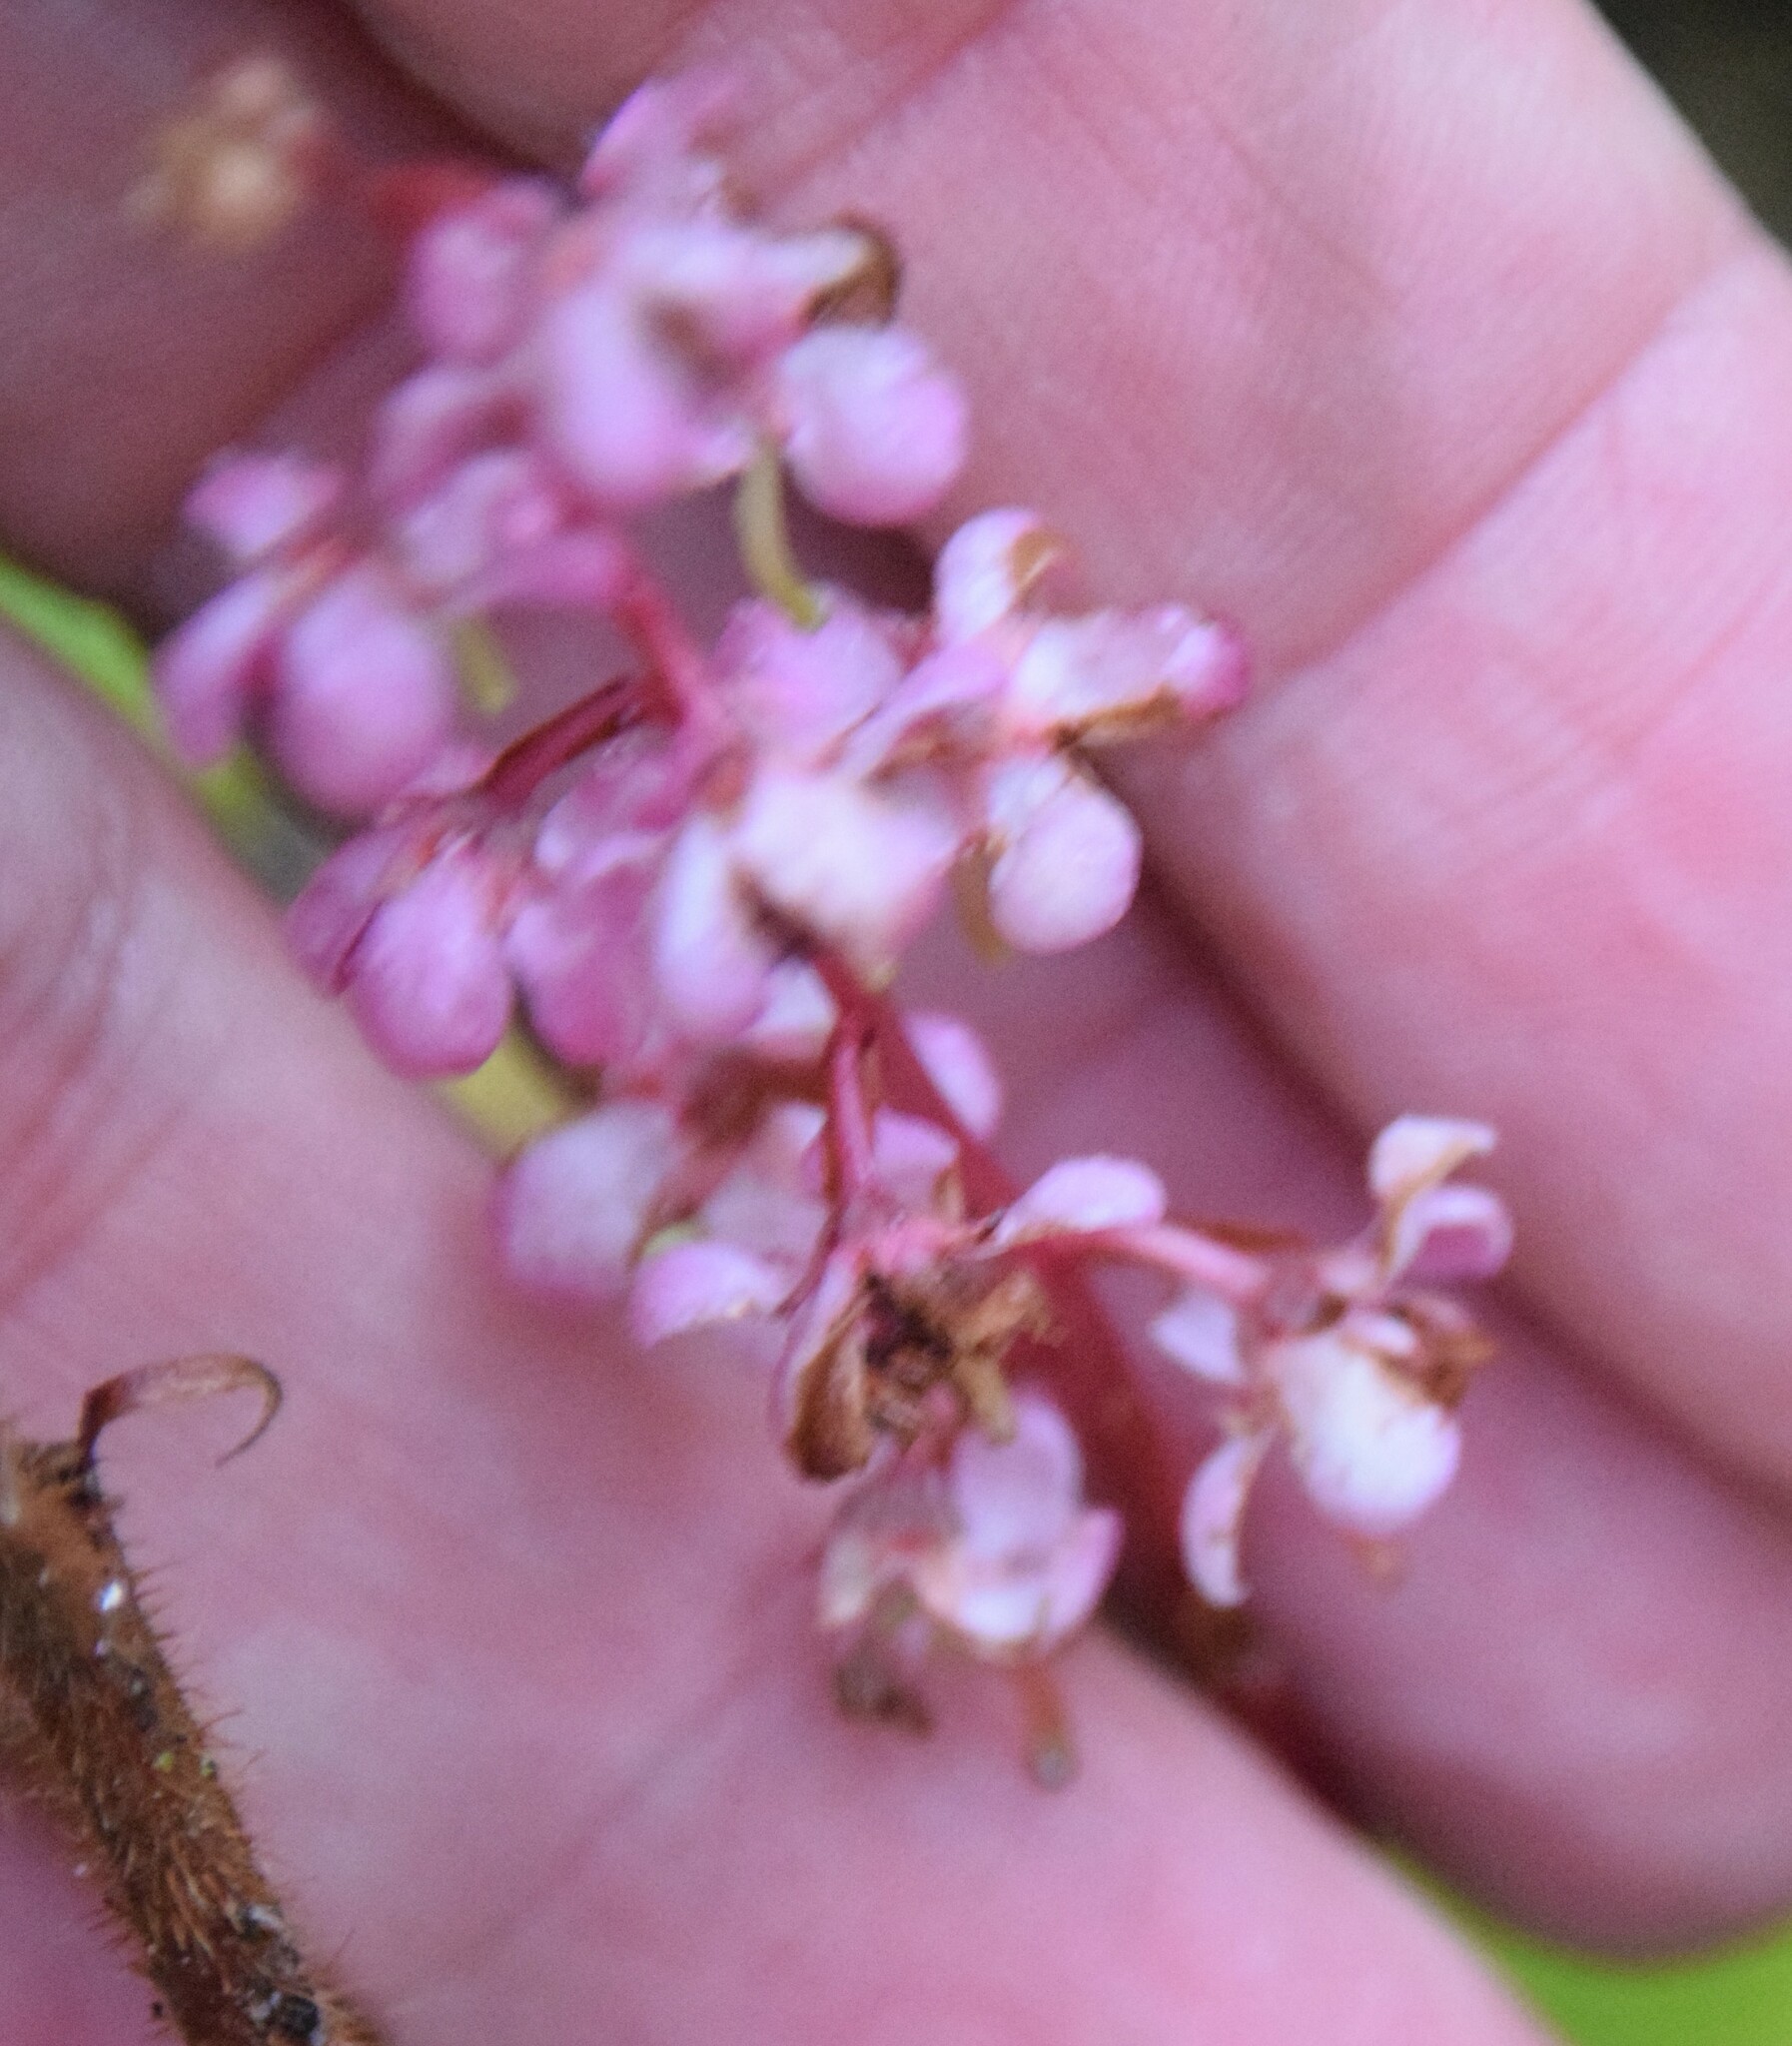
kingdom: Plantae
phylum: Tracheophyta
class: Magnoliopsida
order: Ericales
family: Ericaceae
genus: Pyrola
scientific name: Pyrola asarifolia
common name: Bog wintergreen
